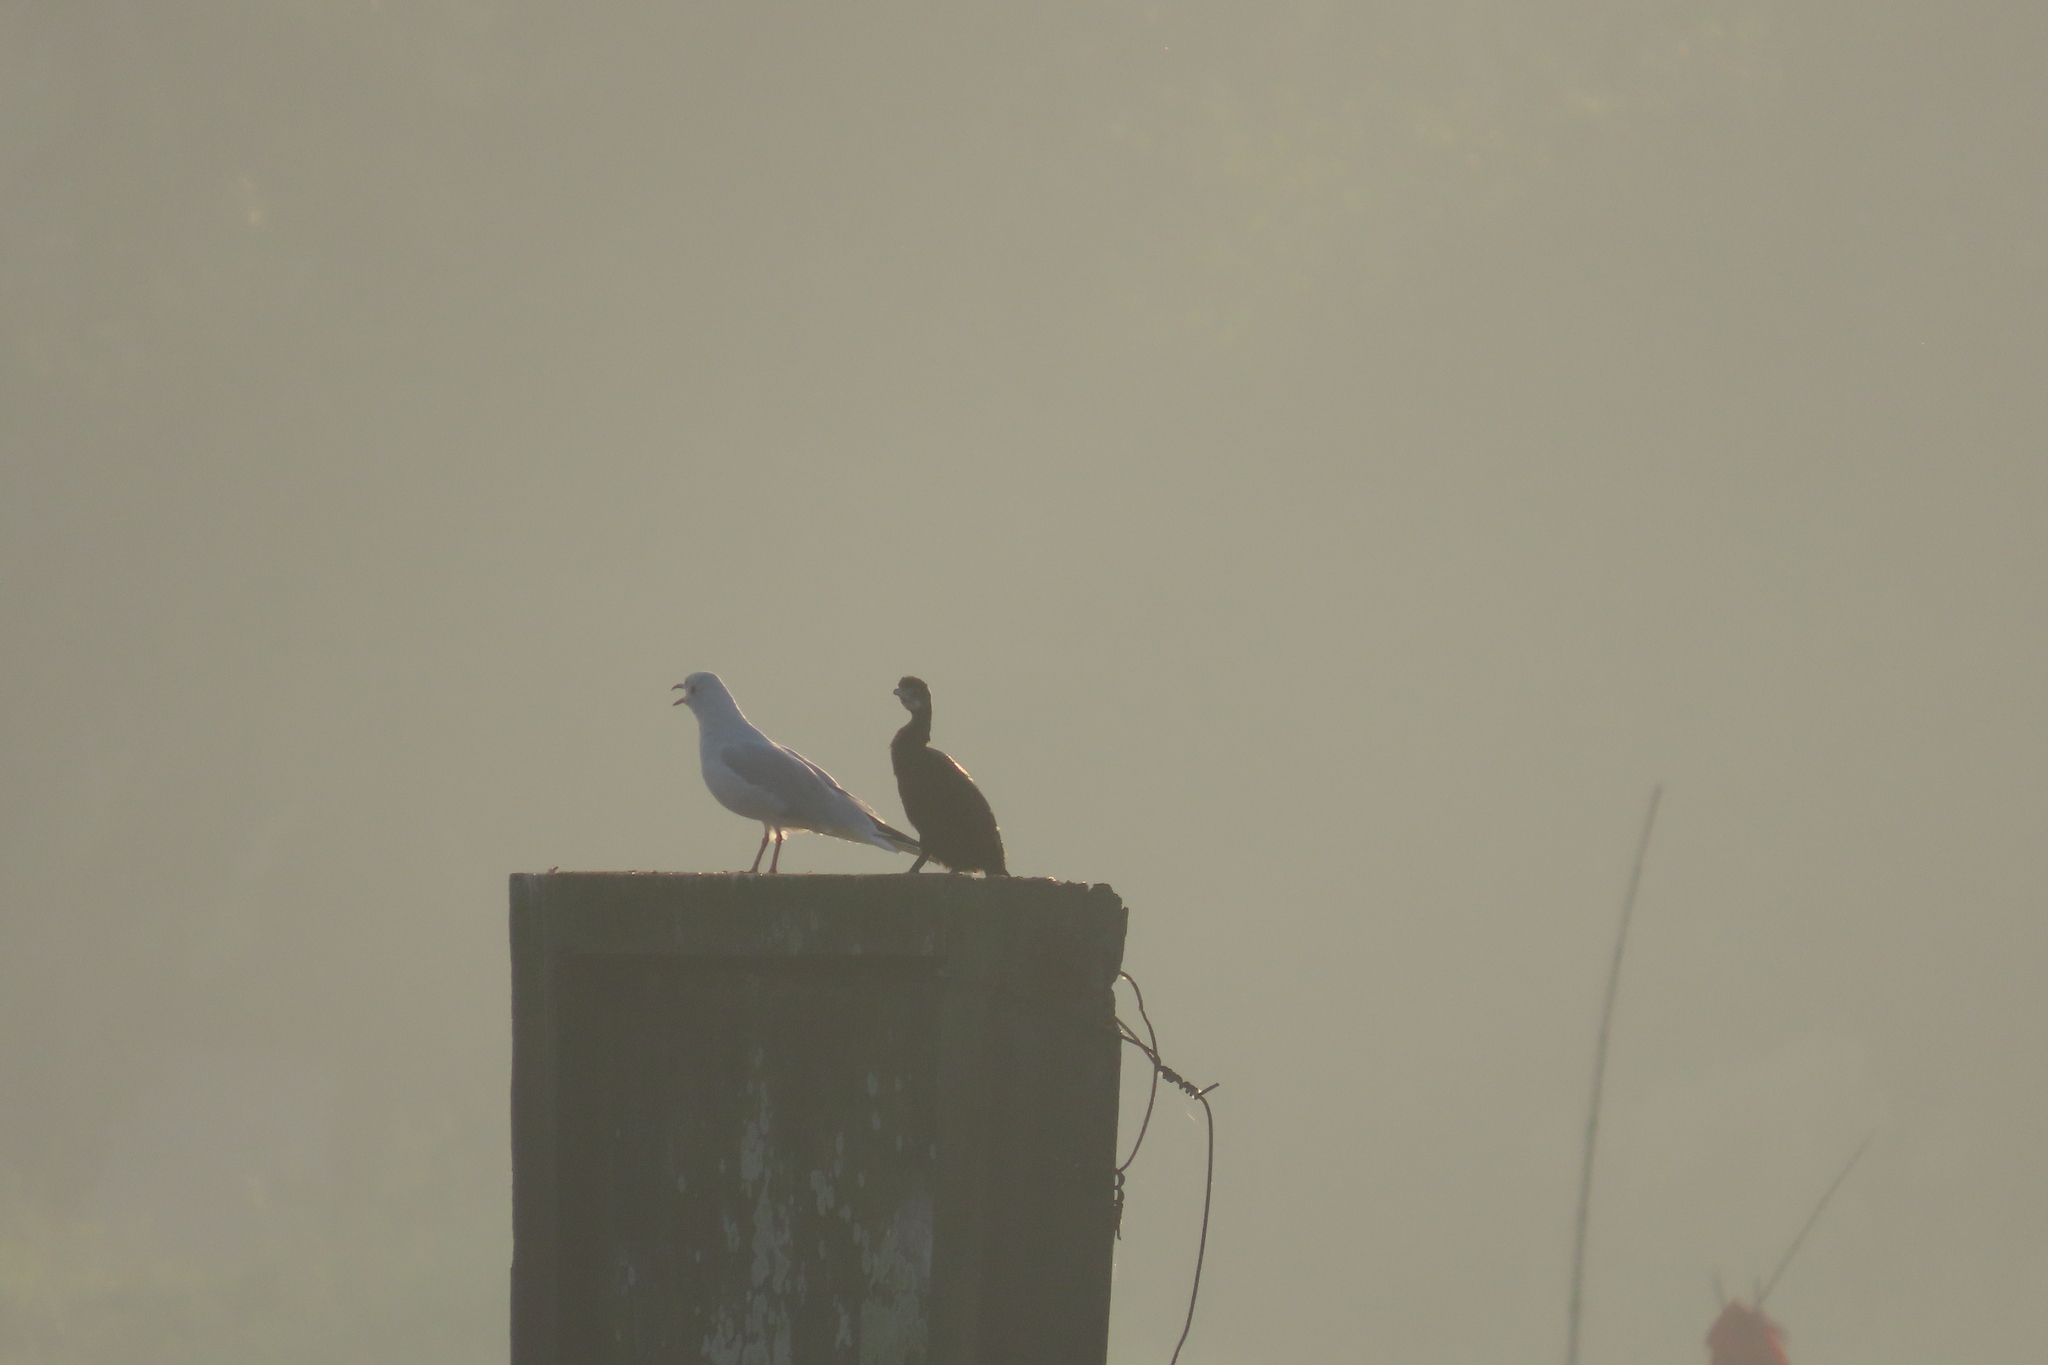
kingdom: Animalia
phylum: Chordata
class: Aves
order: Suliformes
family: Phalacrocoracidae
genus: Microcarbo
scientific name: Microcarbo niger
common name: Little cormorant
